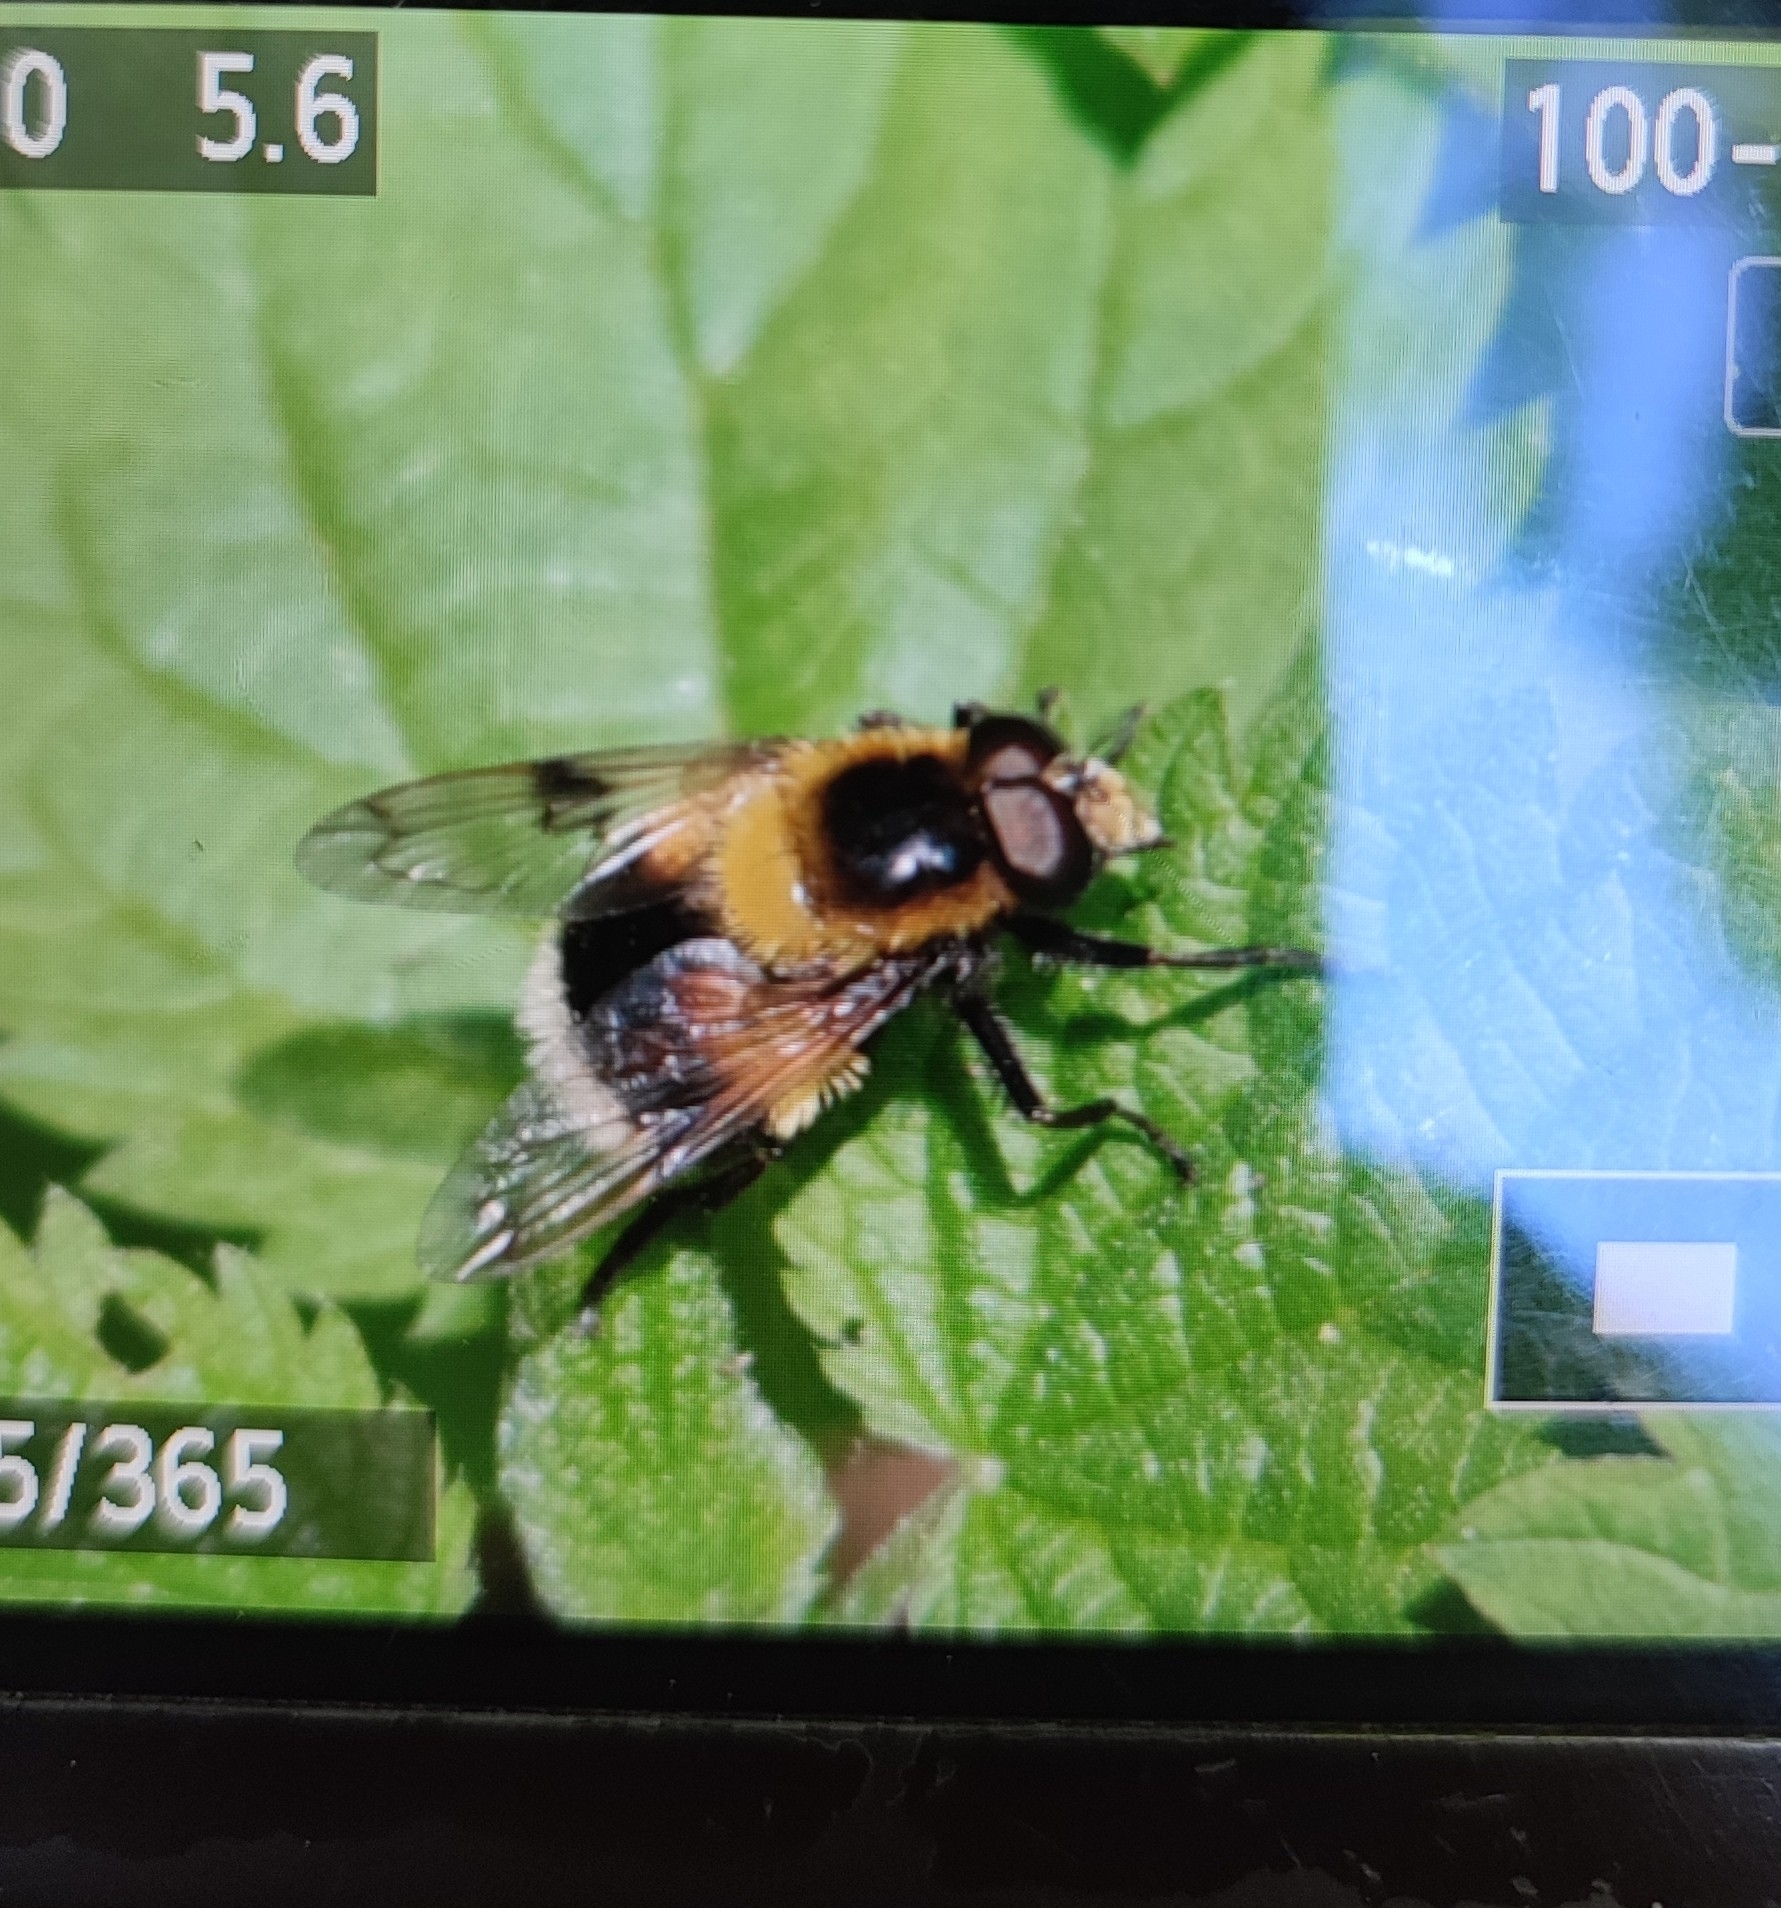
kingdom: Animalia
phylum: Arthropoda
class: Insecta
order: Diptera
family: Syrphidae
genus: Volucella
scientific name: Volucella bombylans
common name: Bumble bee hover fly
